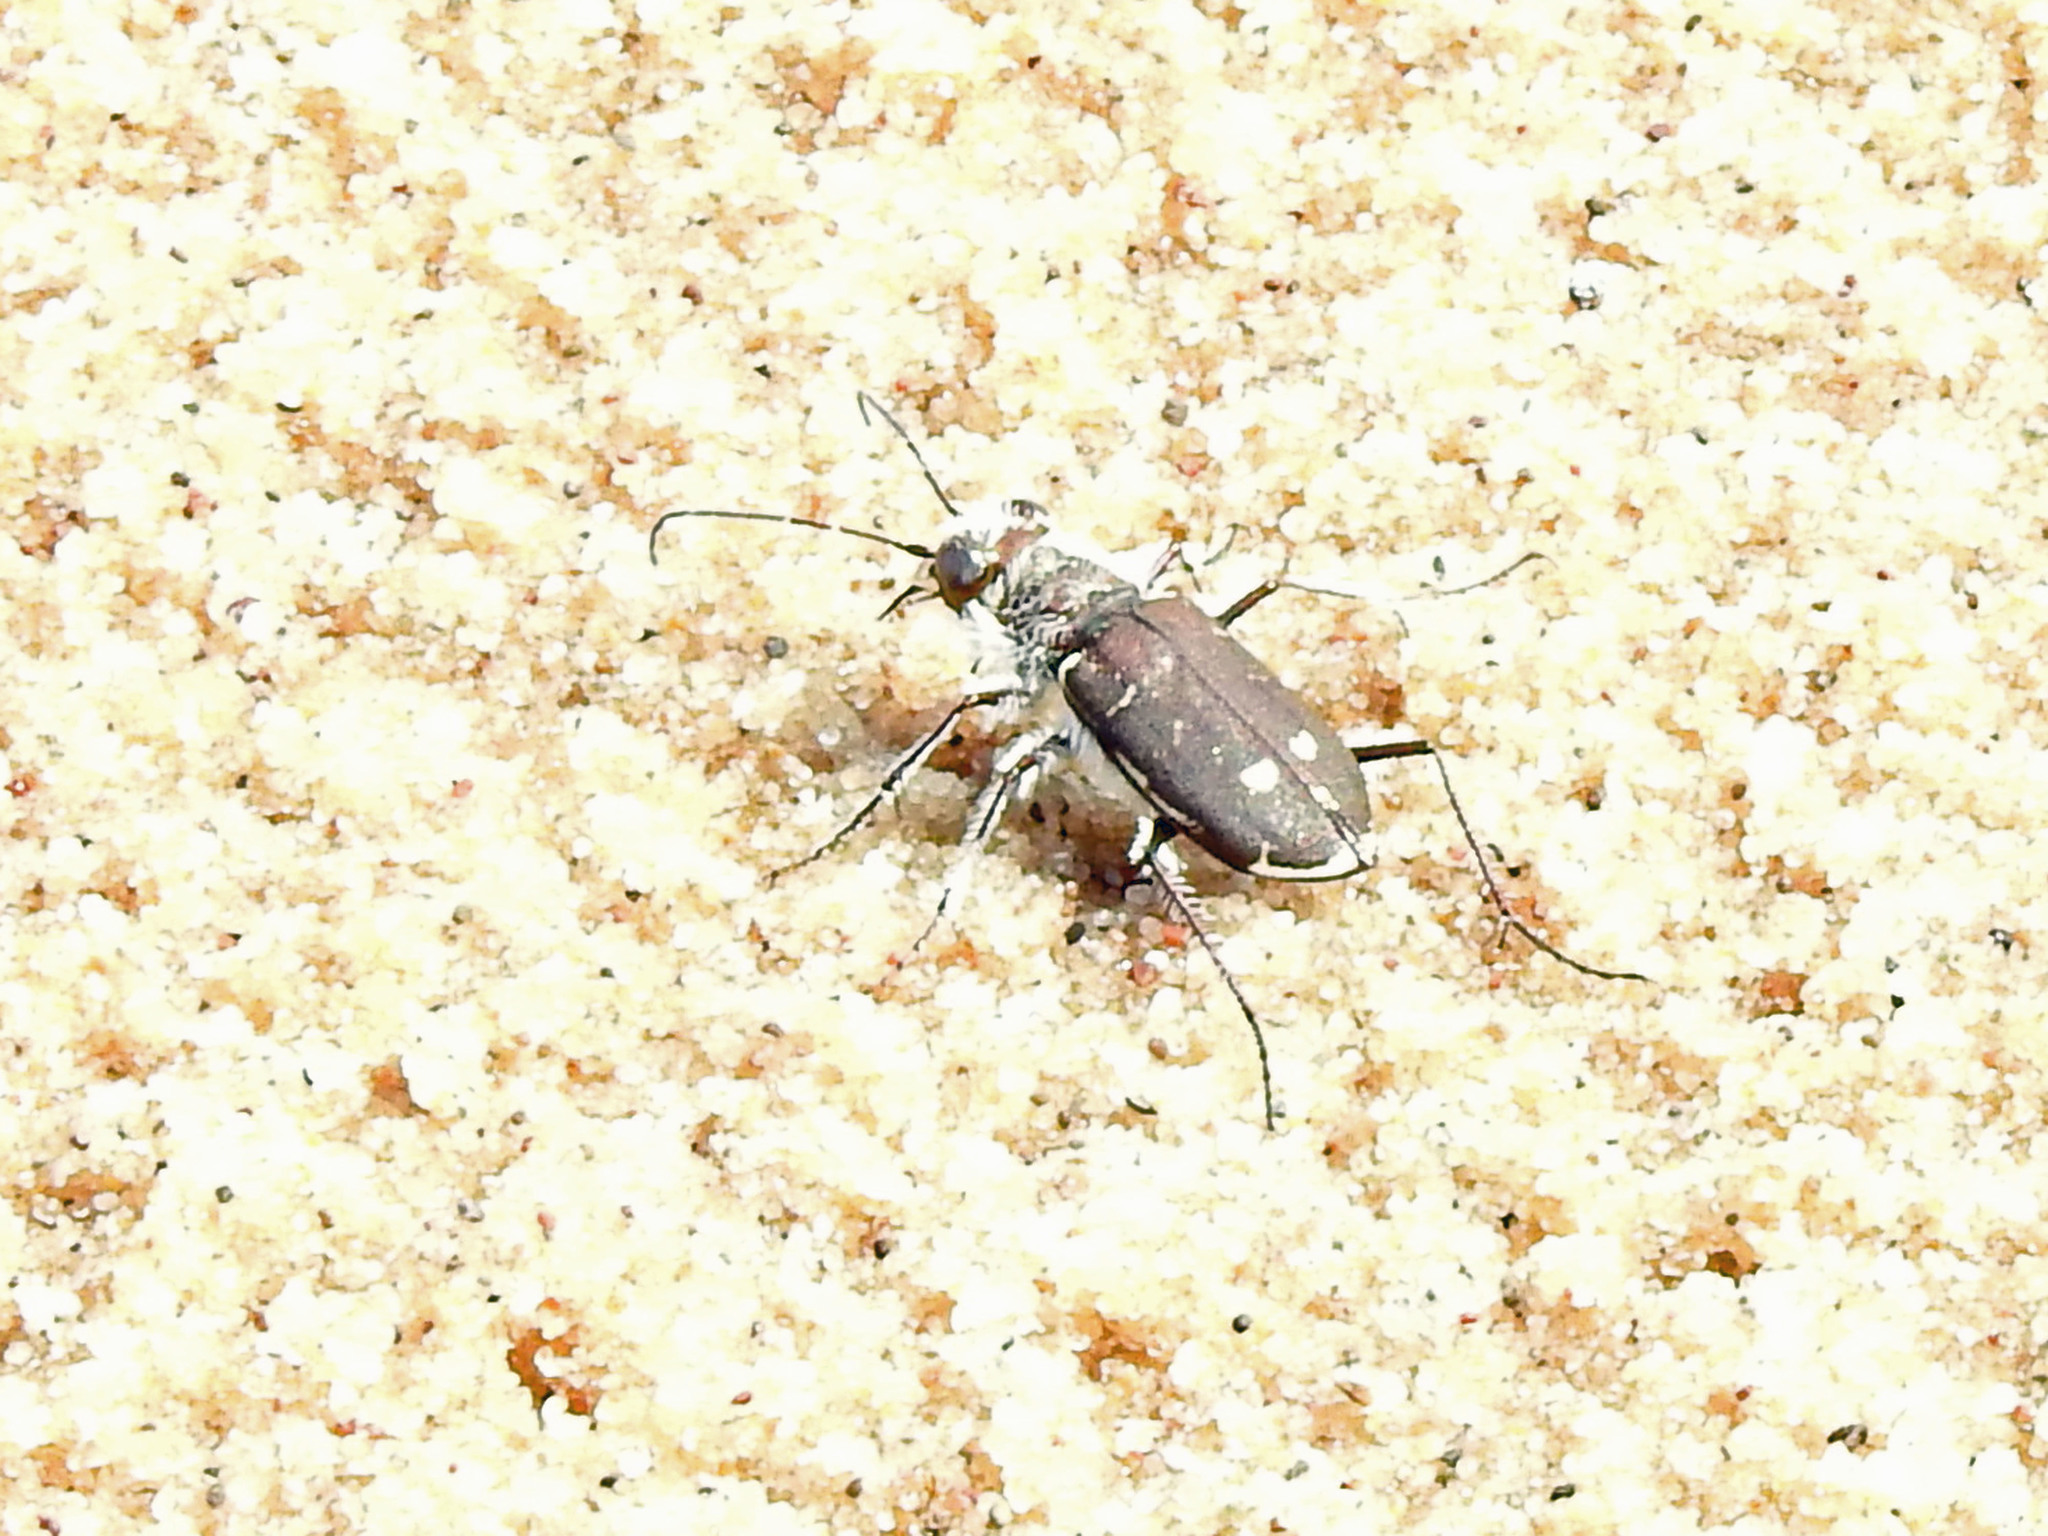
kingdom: Animalia
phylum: Arthropoda
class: Insecta
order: Coleoptera
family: Carabidae
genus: Cicindela
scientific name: Cicindela hirticollis
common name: Hairy-necked tiger beetle
